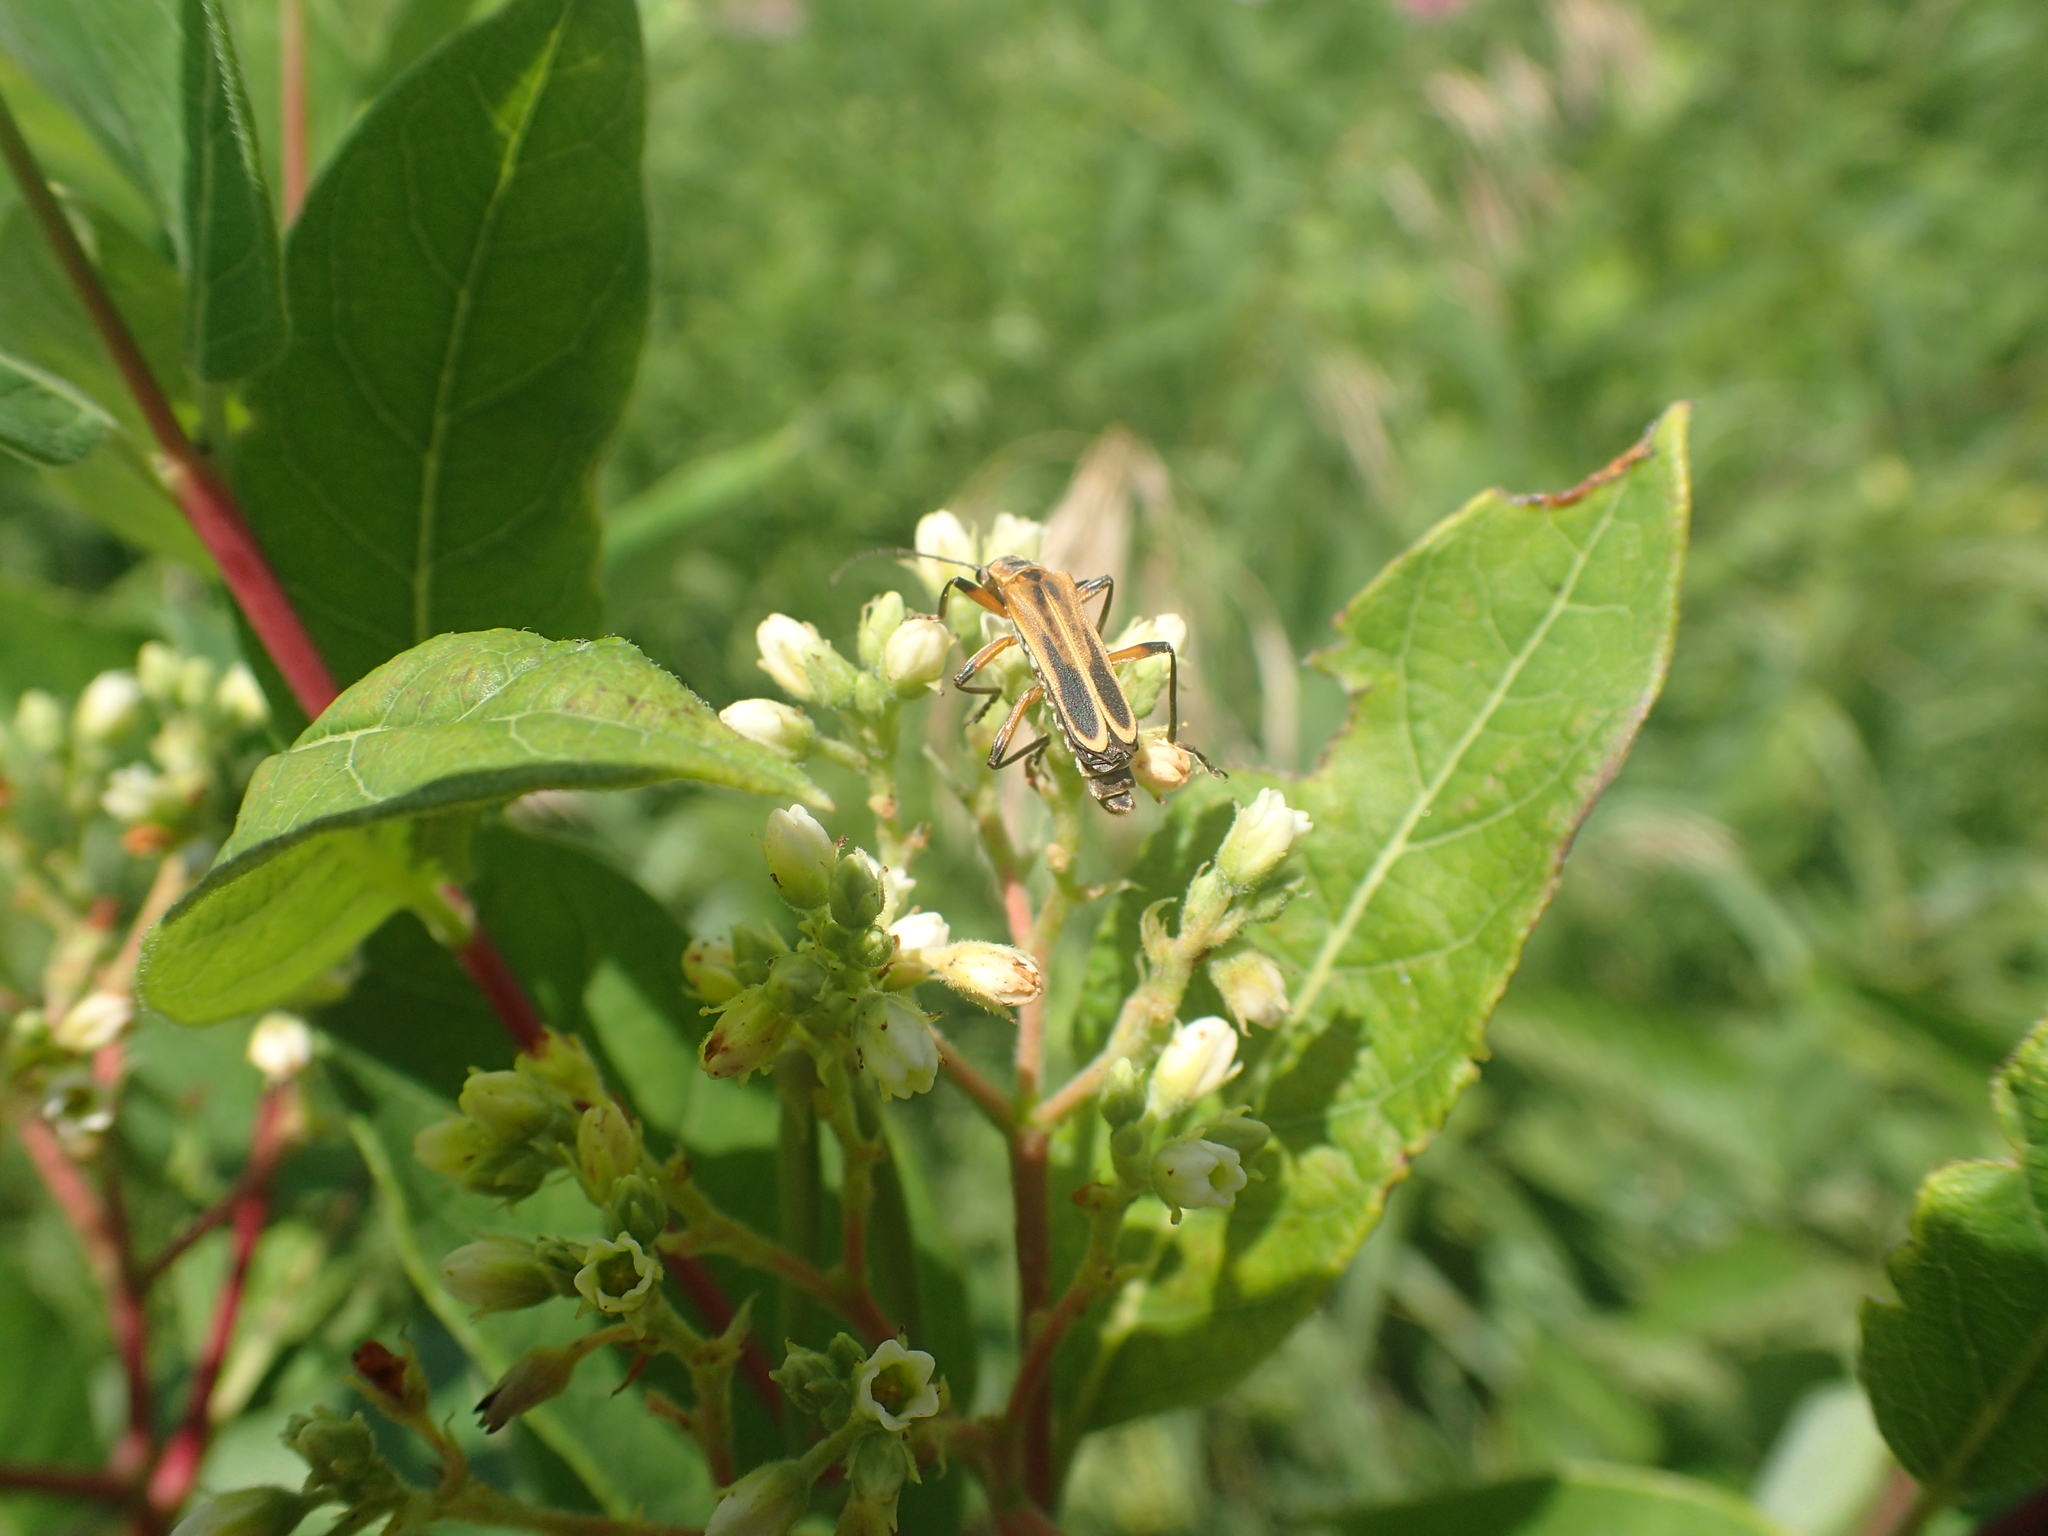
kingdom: Animalia
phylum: Arthropoda
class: Insecta
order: Coleoptera
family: Cantharidae
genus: Chauliognathus
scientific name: Chauliognathus marginatus
